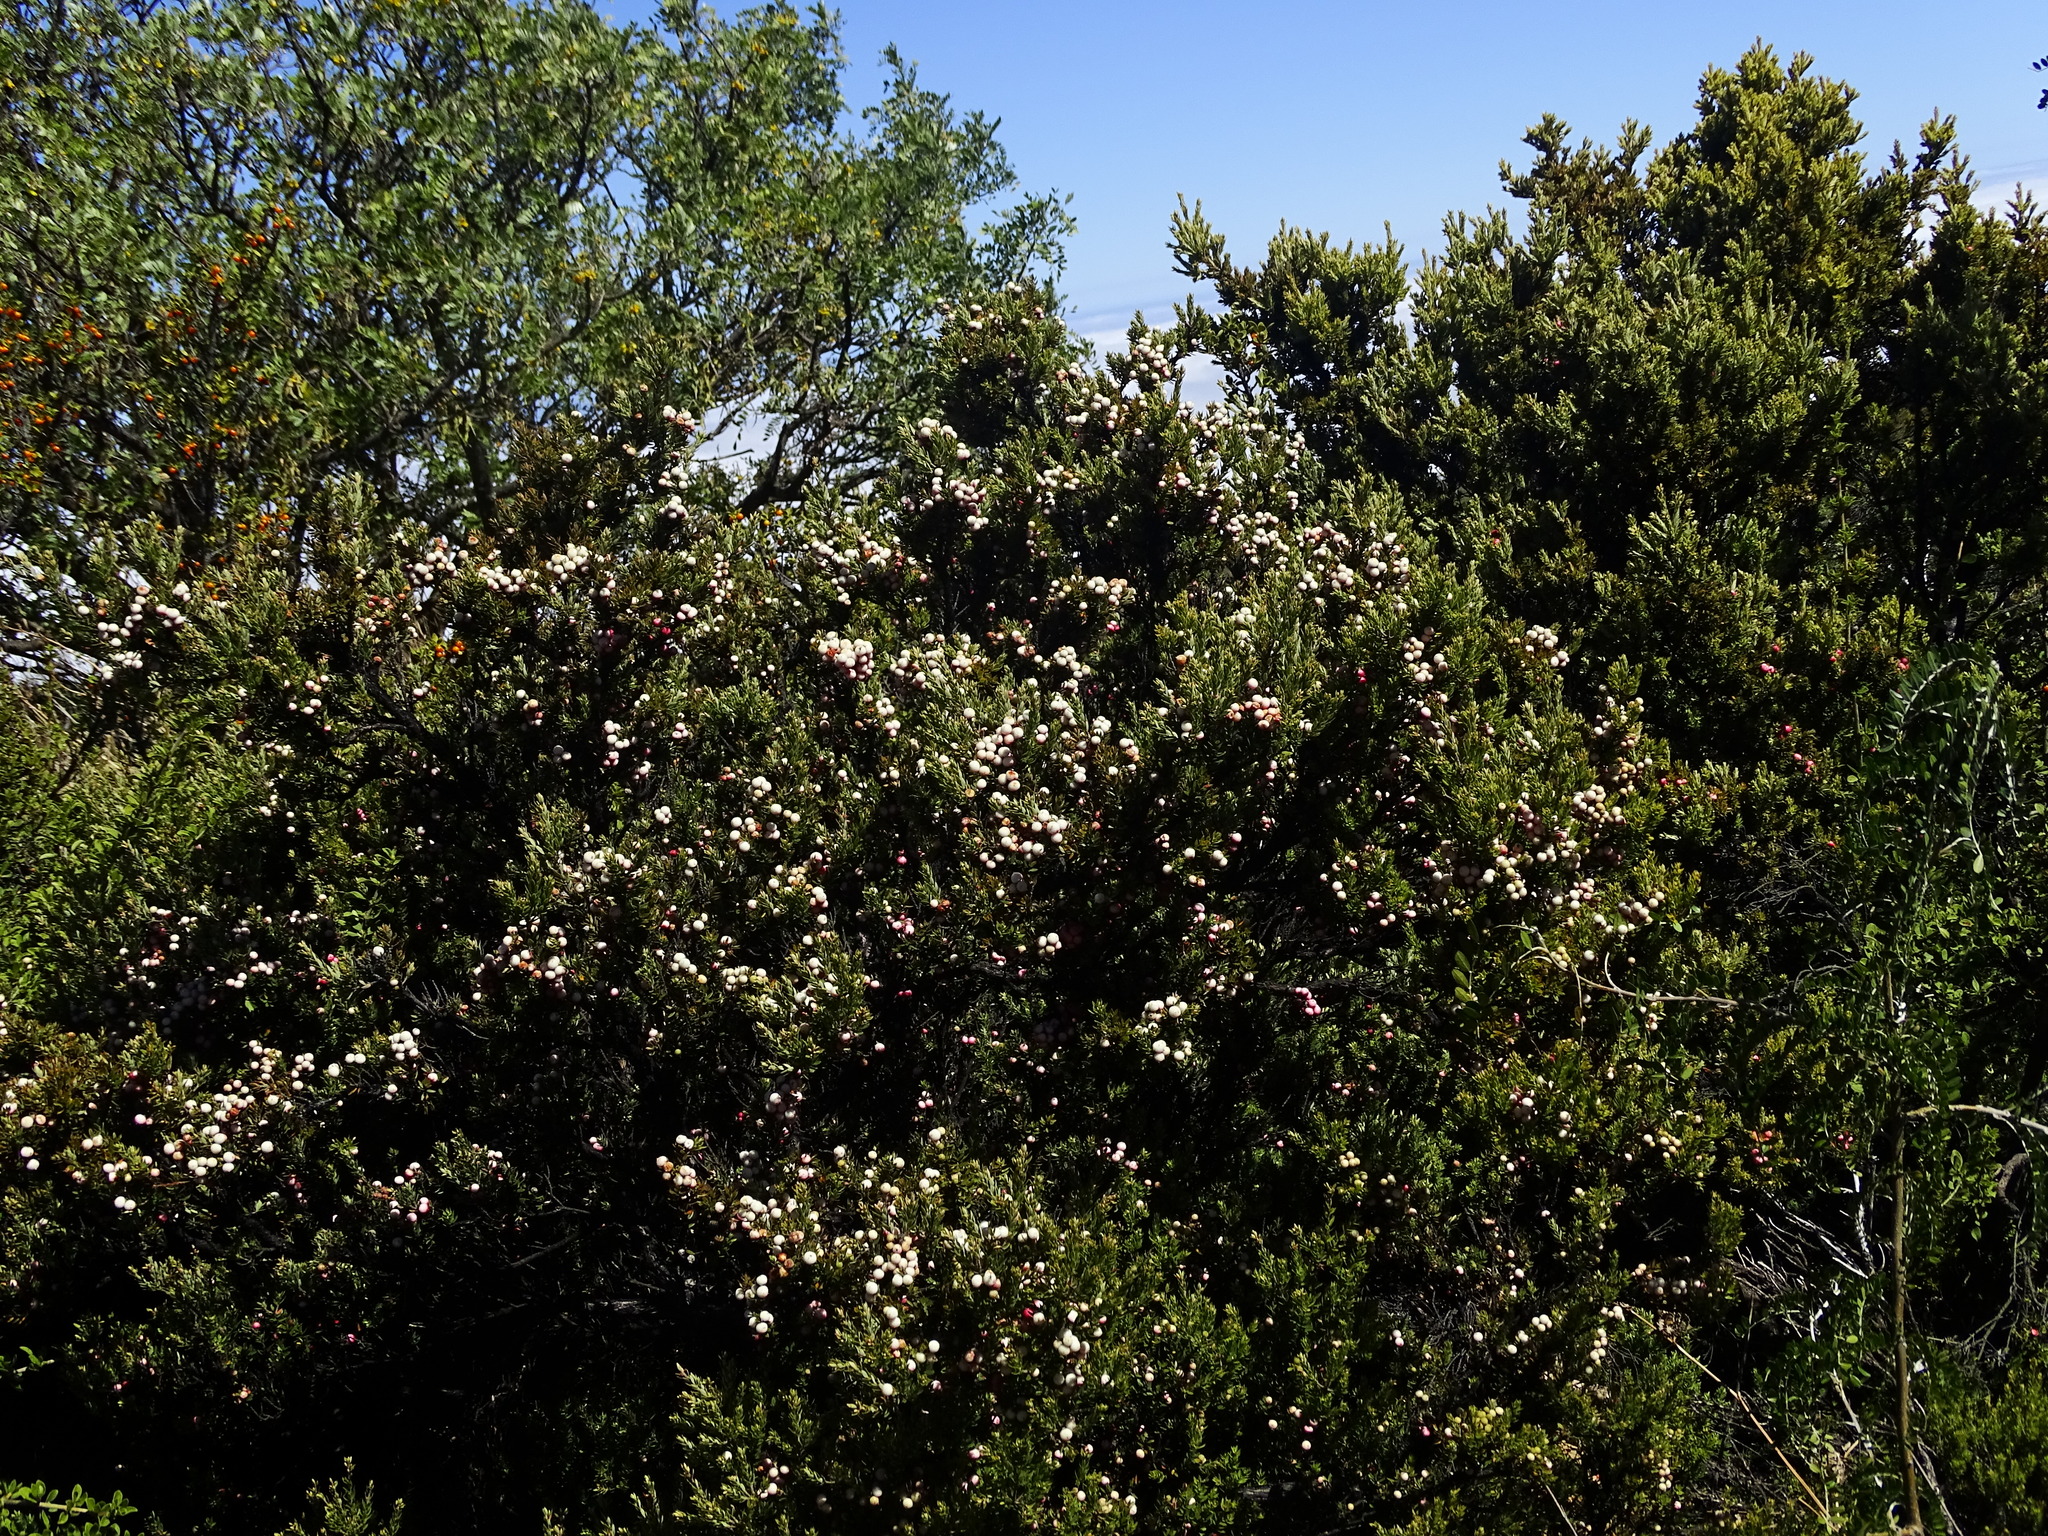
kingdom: Plantae
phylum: Tracheophyta
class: Magnoliopsida
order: Ericales
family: Ericaceae
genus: Leptecophylla
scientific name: Leptecophylla tameiameiae
